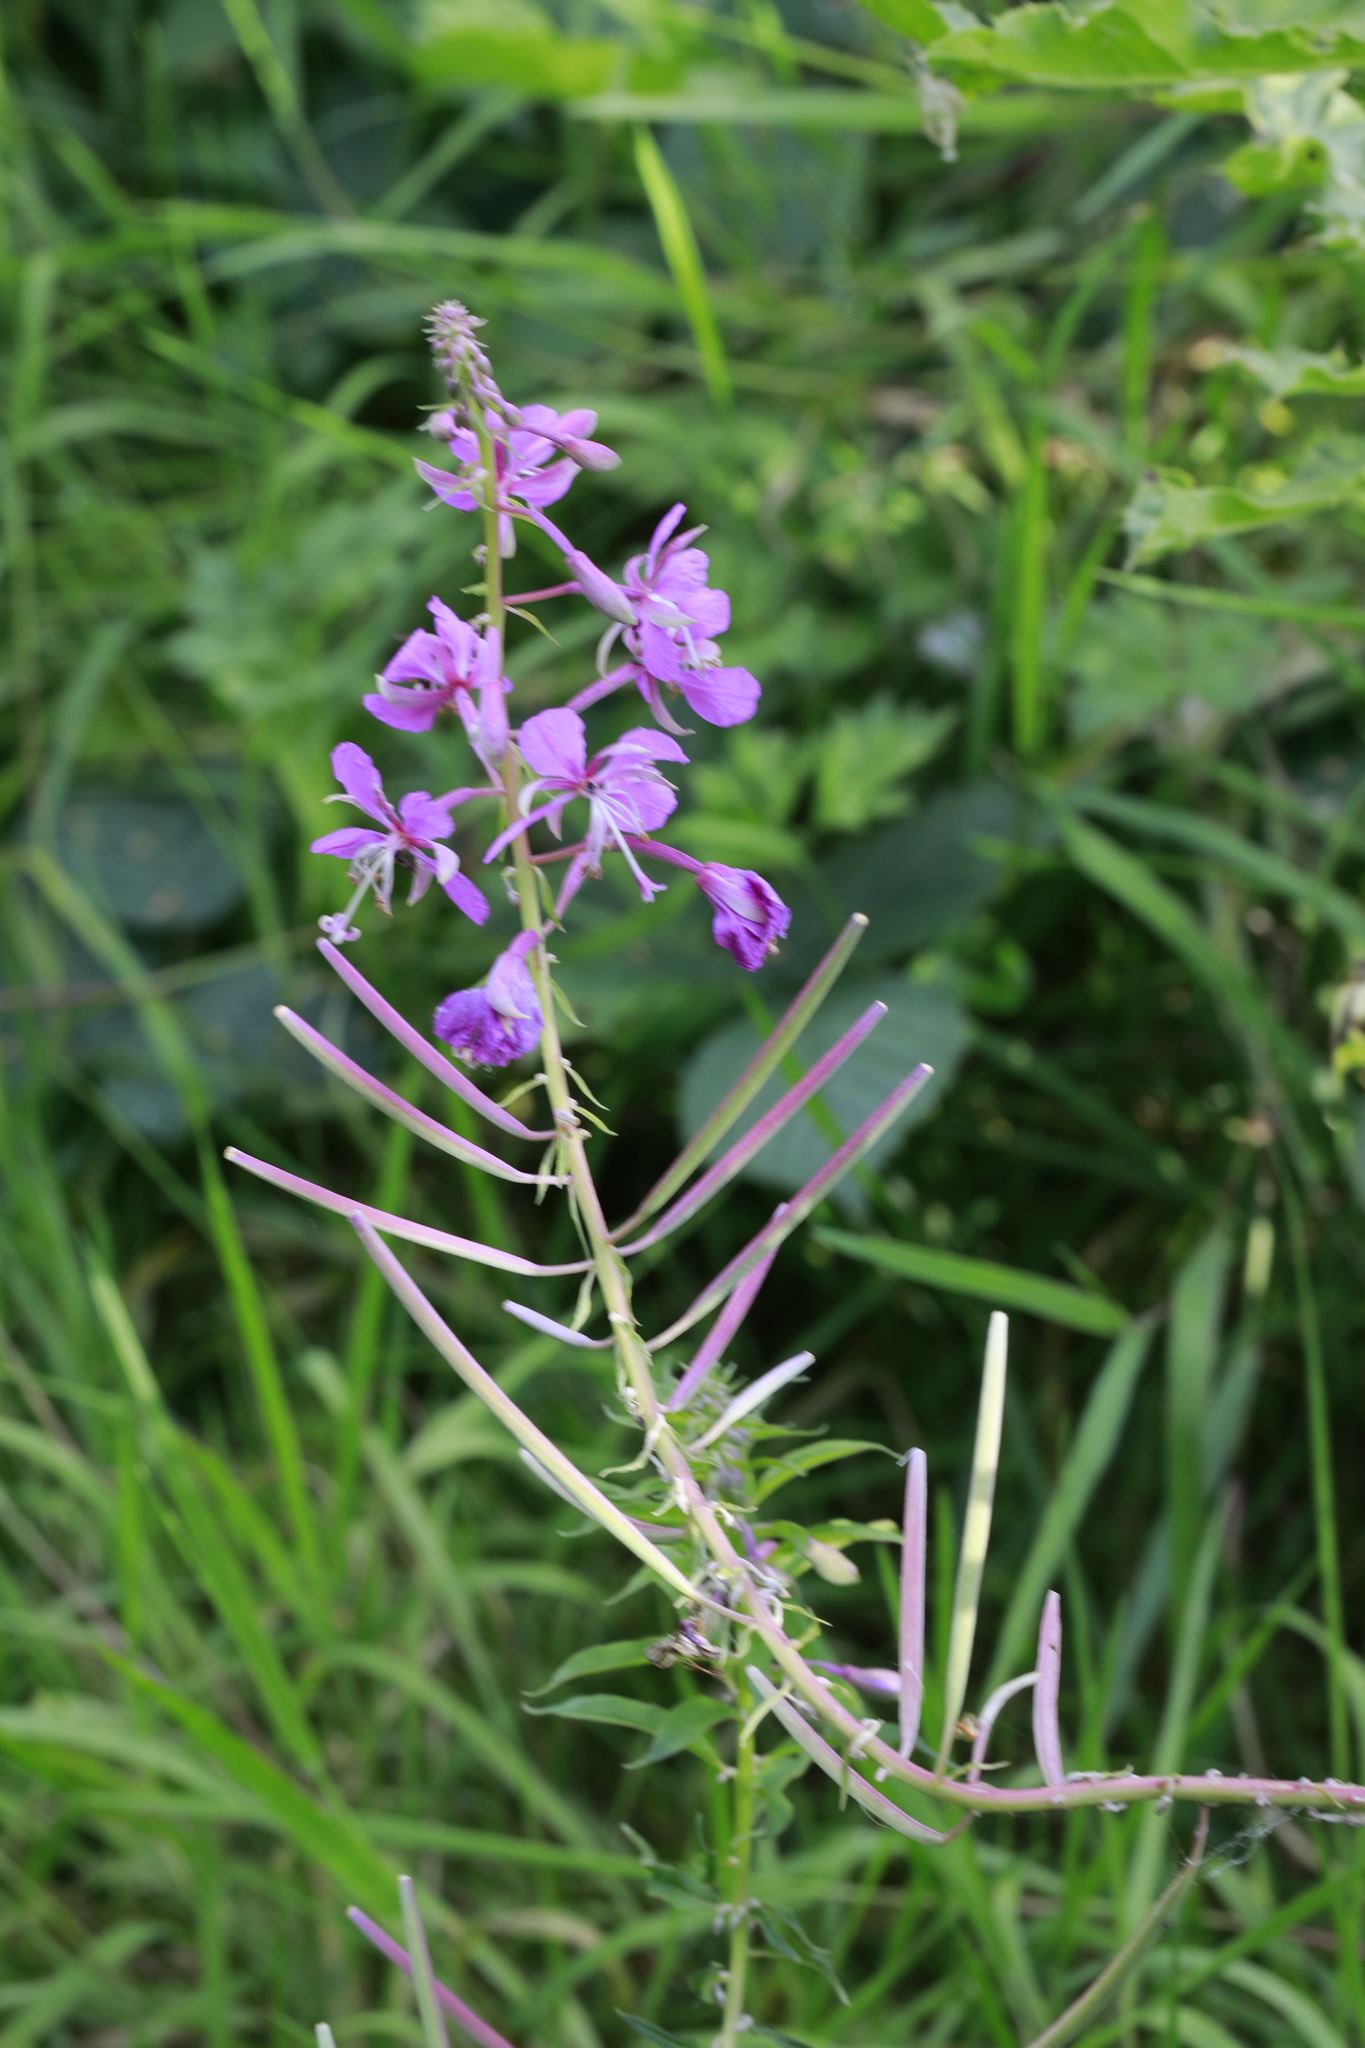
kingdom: Plantae
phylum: Tracheophyta
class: Magnoliopsida
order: Myrtales
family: Onagraceae
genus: Chamaenerion
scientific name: Chamaenerion angustifolium
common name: Fireweed
